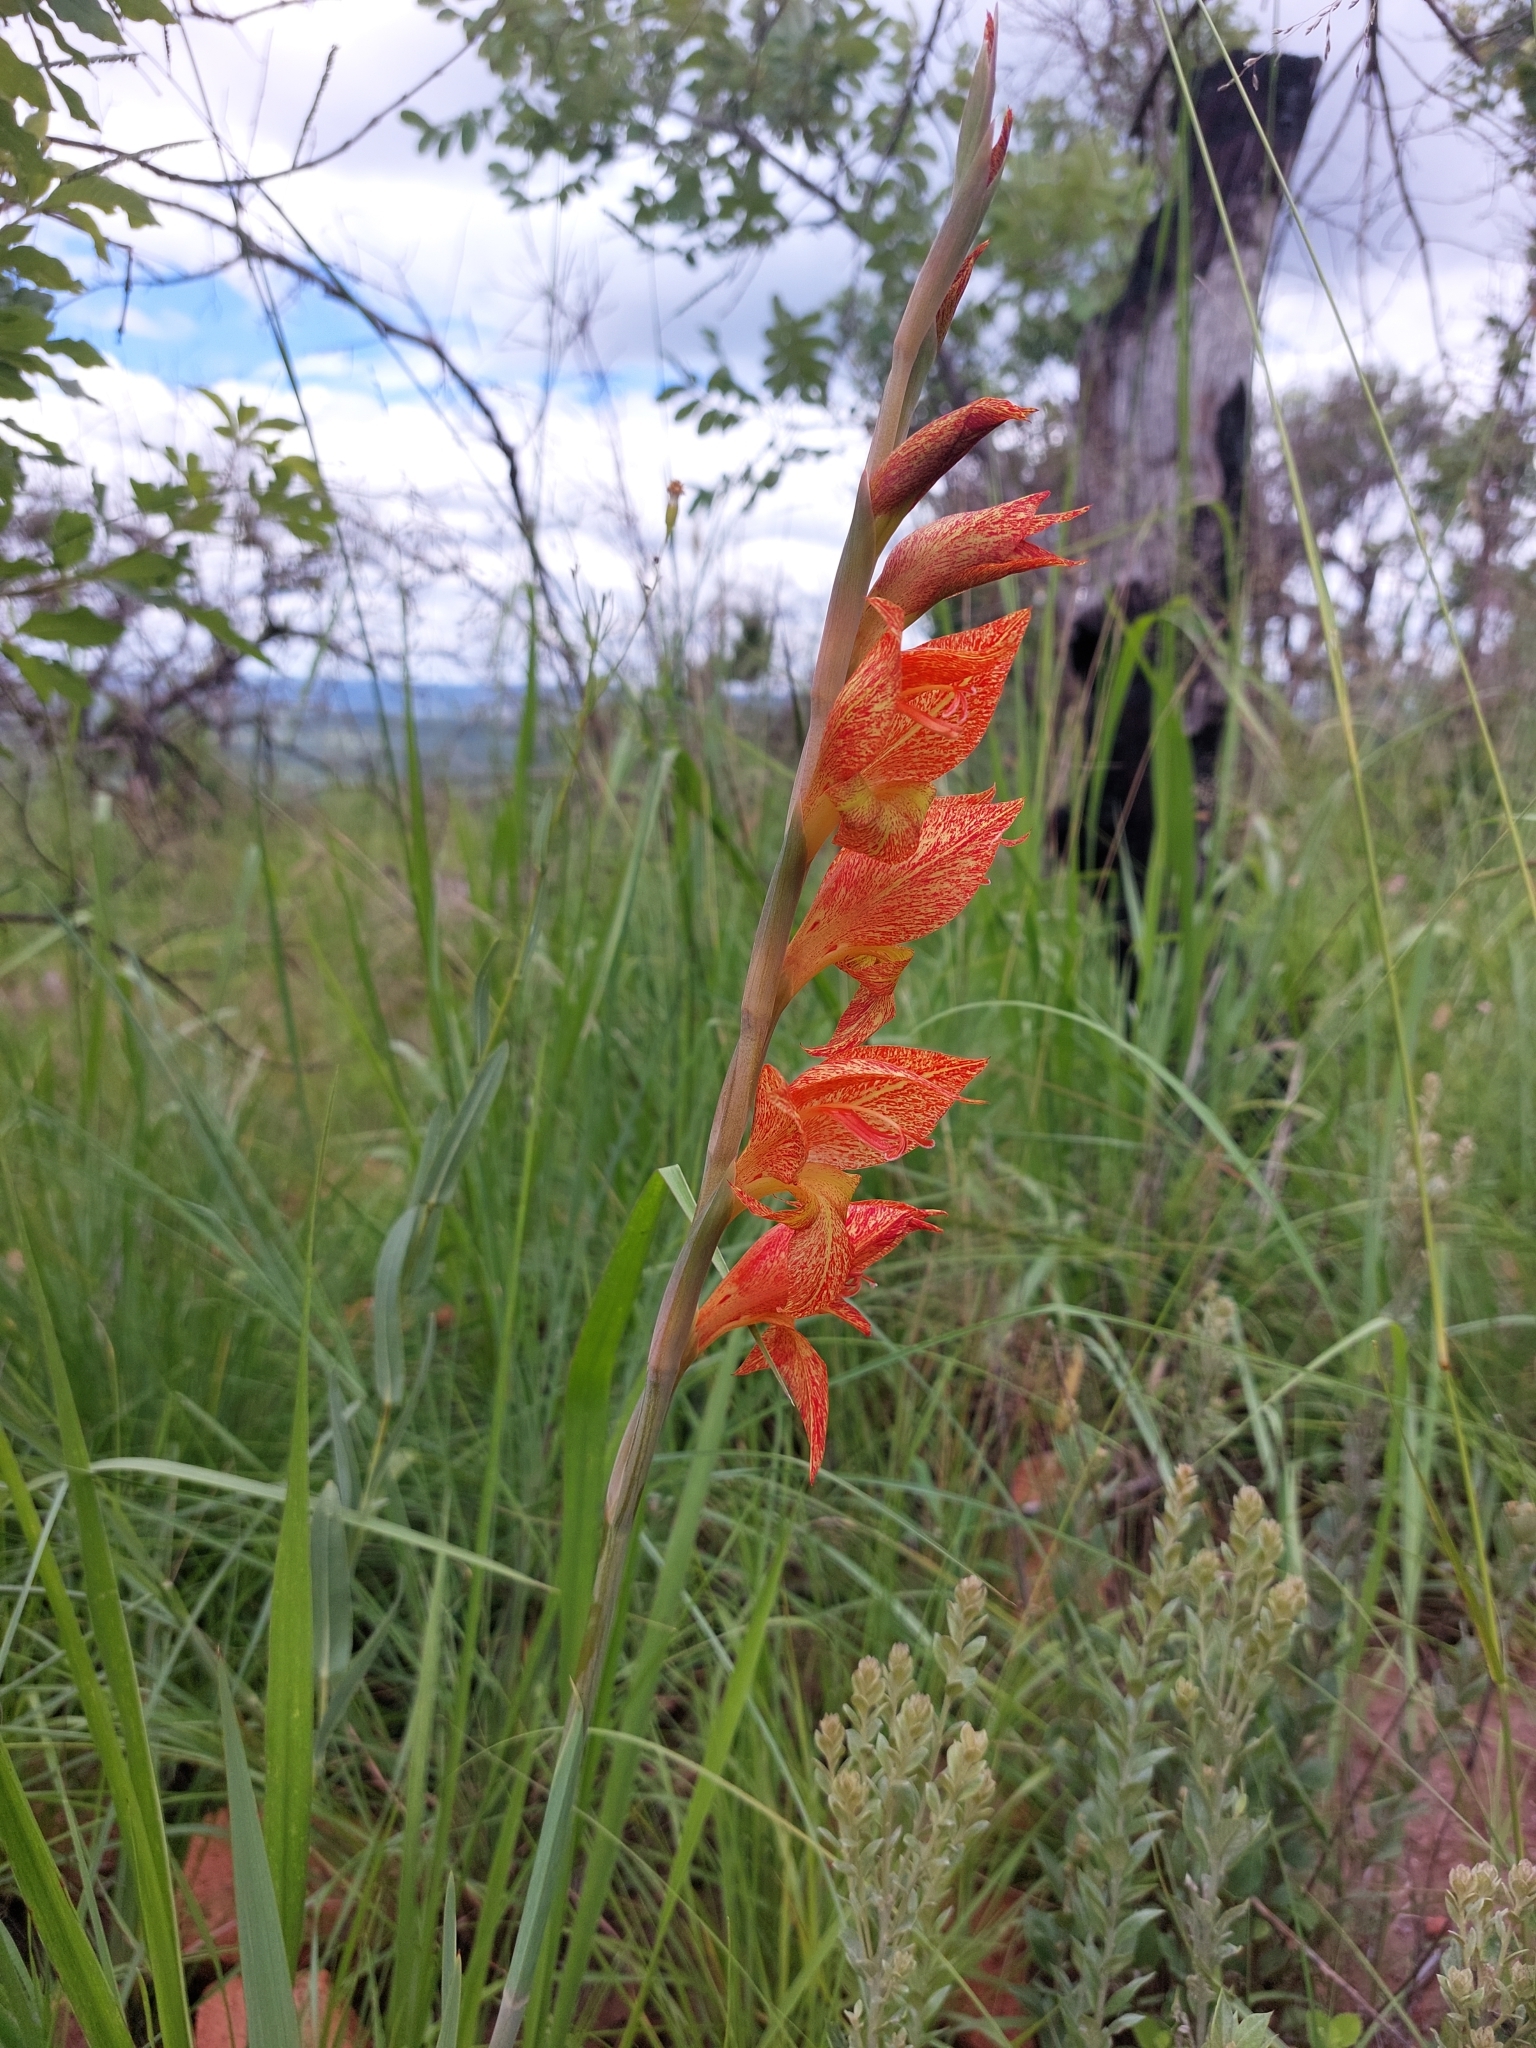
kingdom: Plantae
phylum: Tracheophyta
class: Liliopsida
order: Asparagales
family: Iridaceae
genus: Gladiolus
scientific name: Gladiolus dalenii
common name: Cornflag
